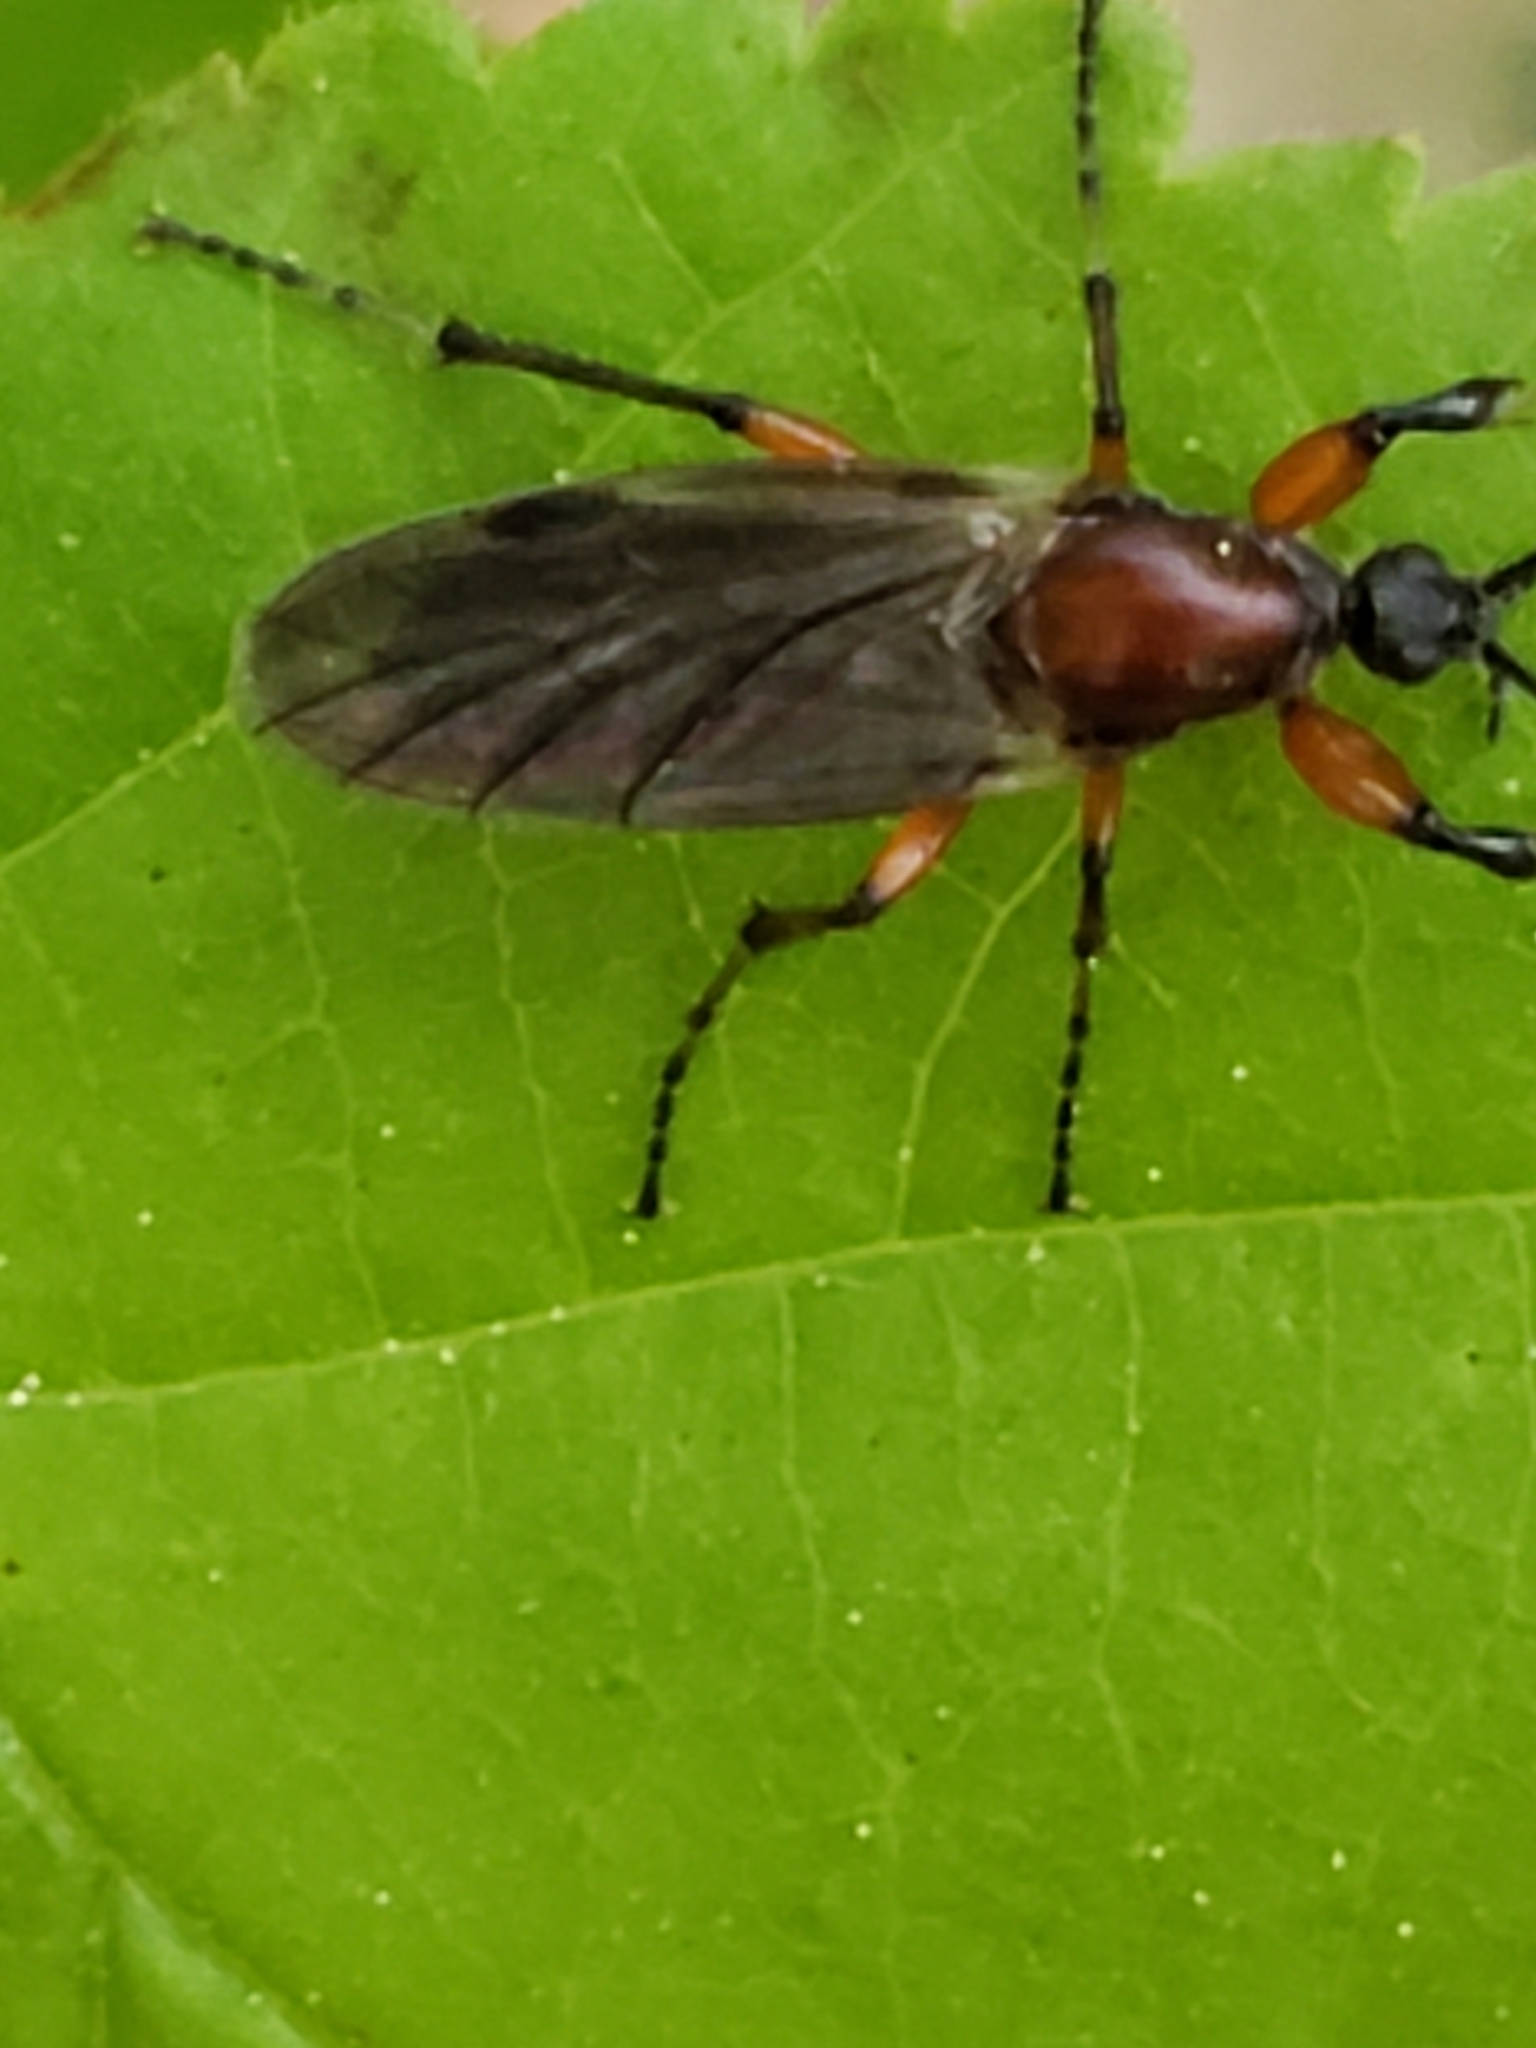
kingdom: Animalia
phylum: Arthropoda
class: Insecta
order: Diptera
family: Bibionidae
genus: Bibio
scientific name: Bibio articulatus
